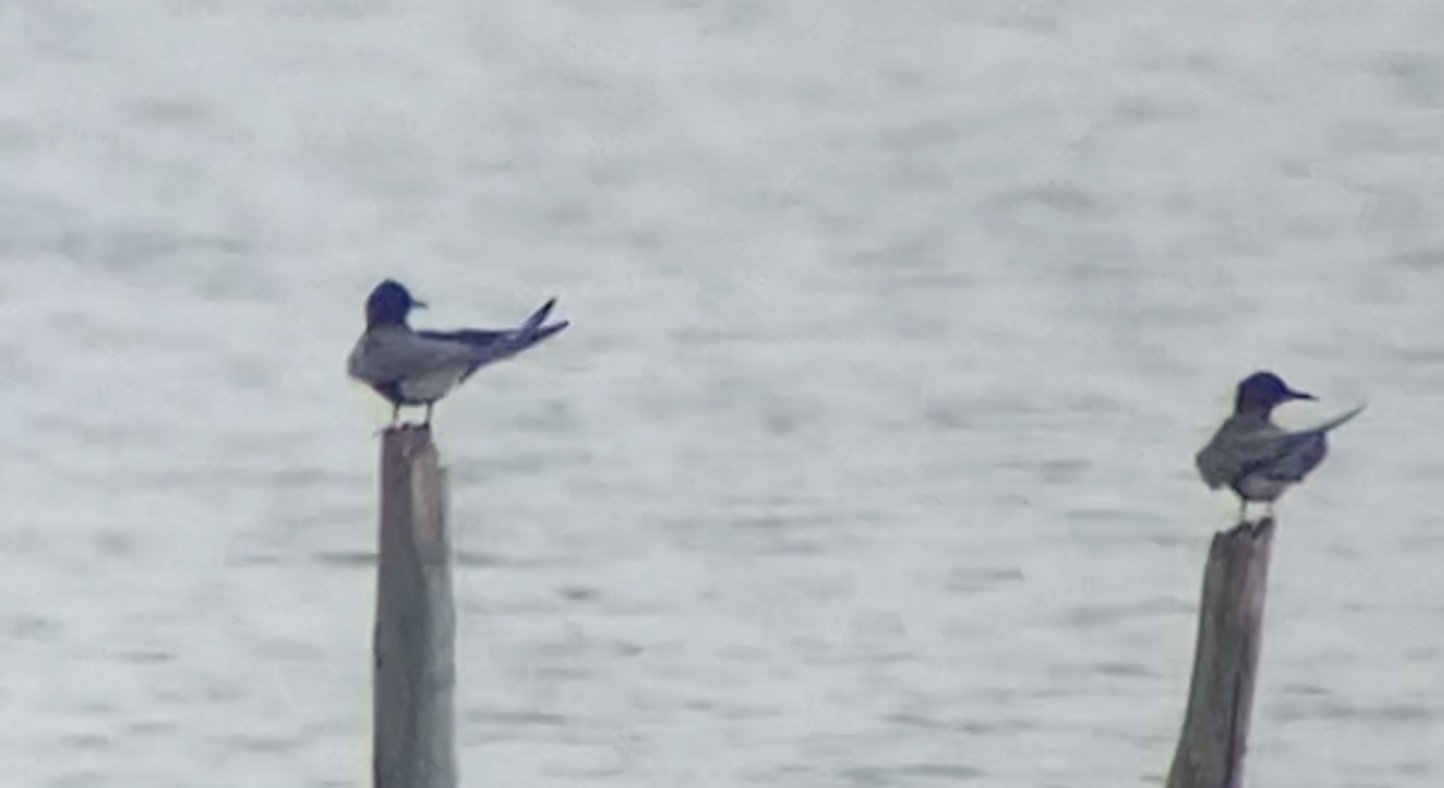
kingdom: Animalia
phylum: Chordata
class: Aves
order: Charadriiformes
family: Laridae
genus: Chlidonias
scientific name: Chlidonias niger
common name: Black tern
